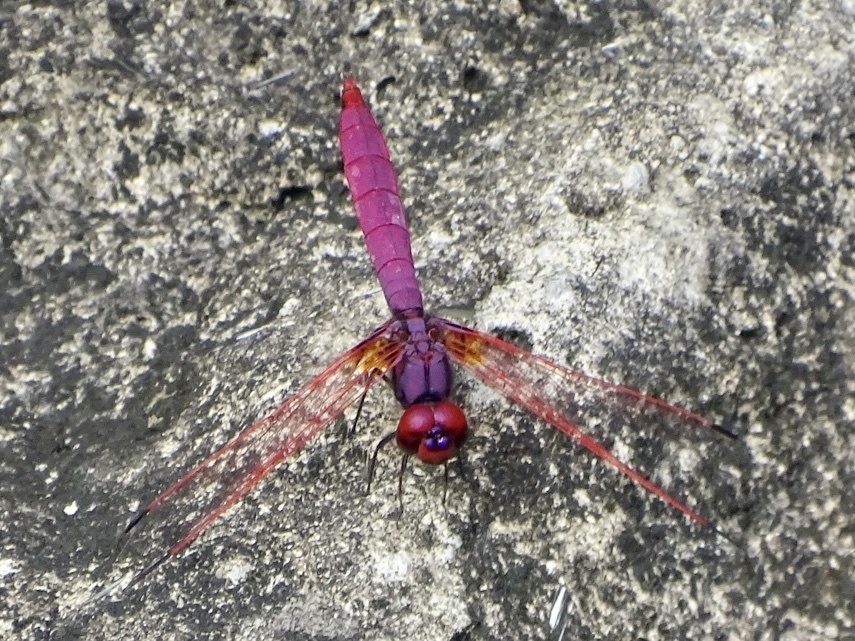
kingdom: Animalia
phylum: Arthropoda
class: Insecta
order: Odonata
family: Libellulidae
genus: Trithemis
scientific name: Trithemis aurora
